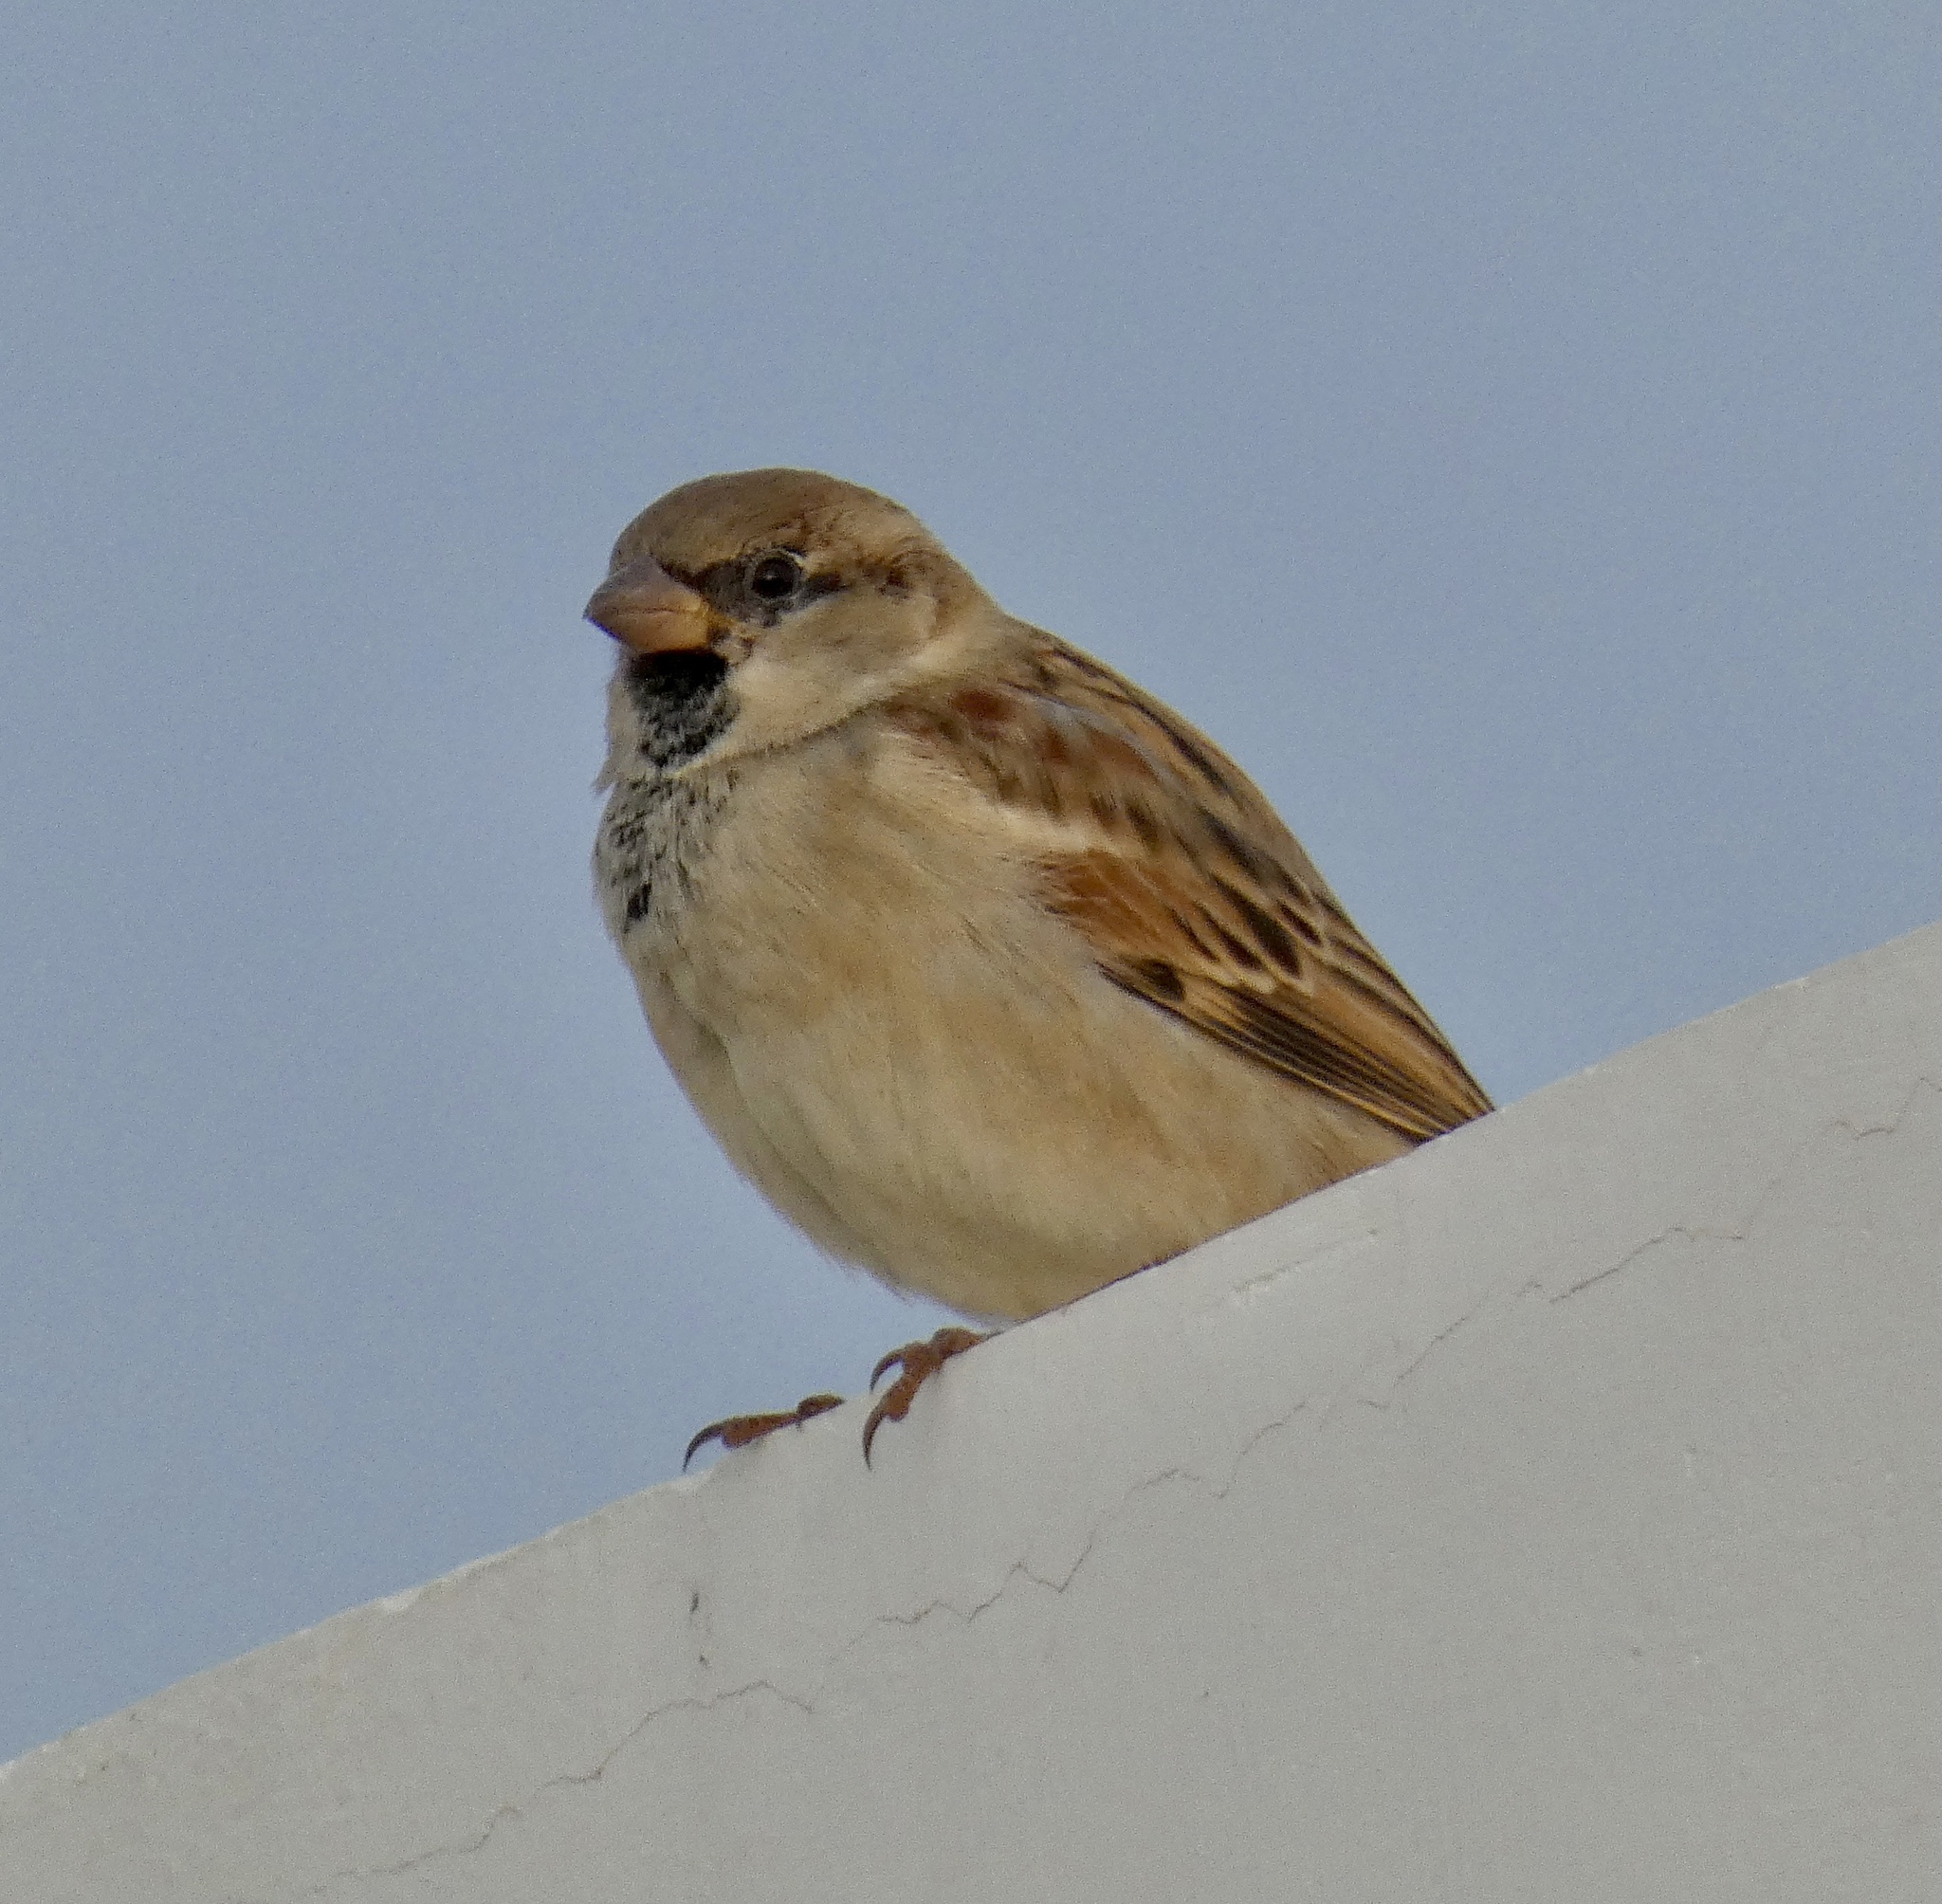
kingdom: Animalia
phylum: Chordata
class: Aves
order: Passeriformes
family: Passeridae
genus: Passer
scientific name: Passer domesticus
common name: House sparrow
